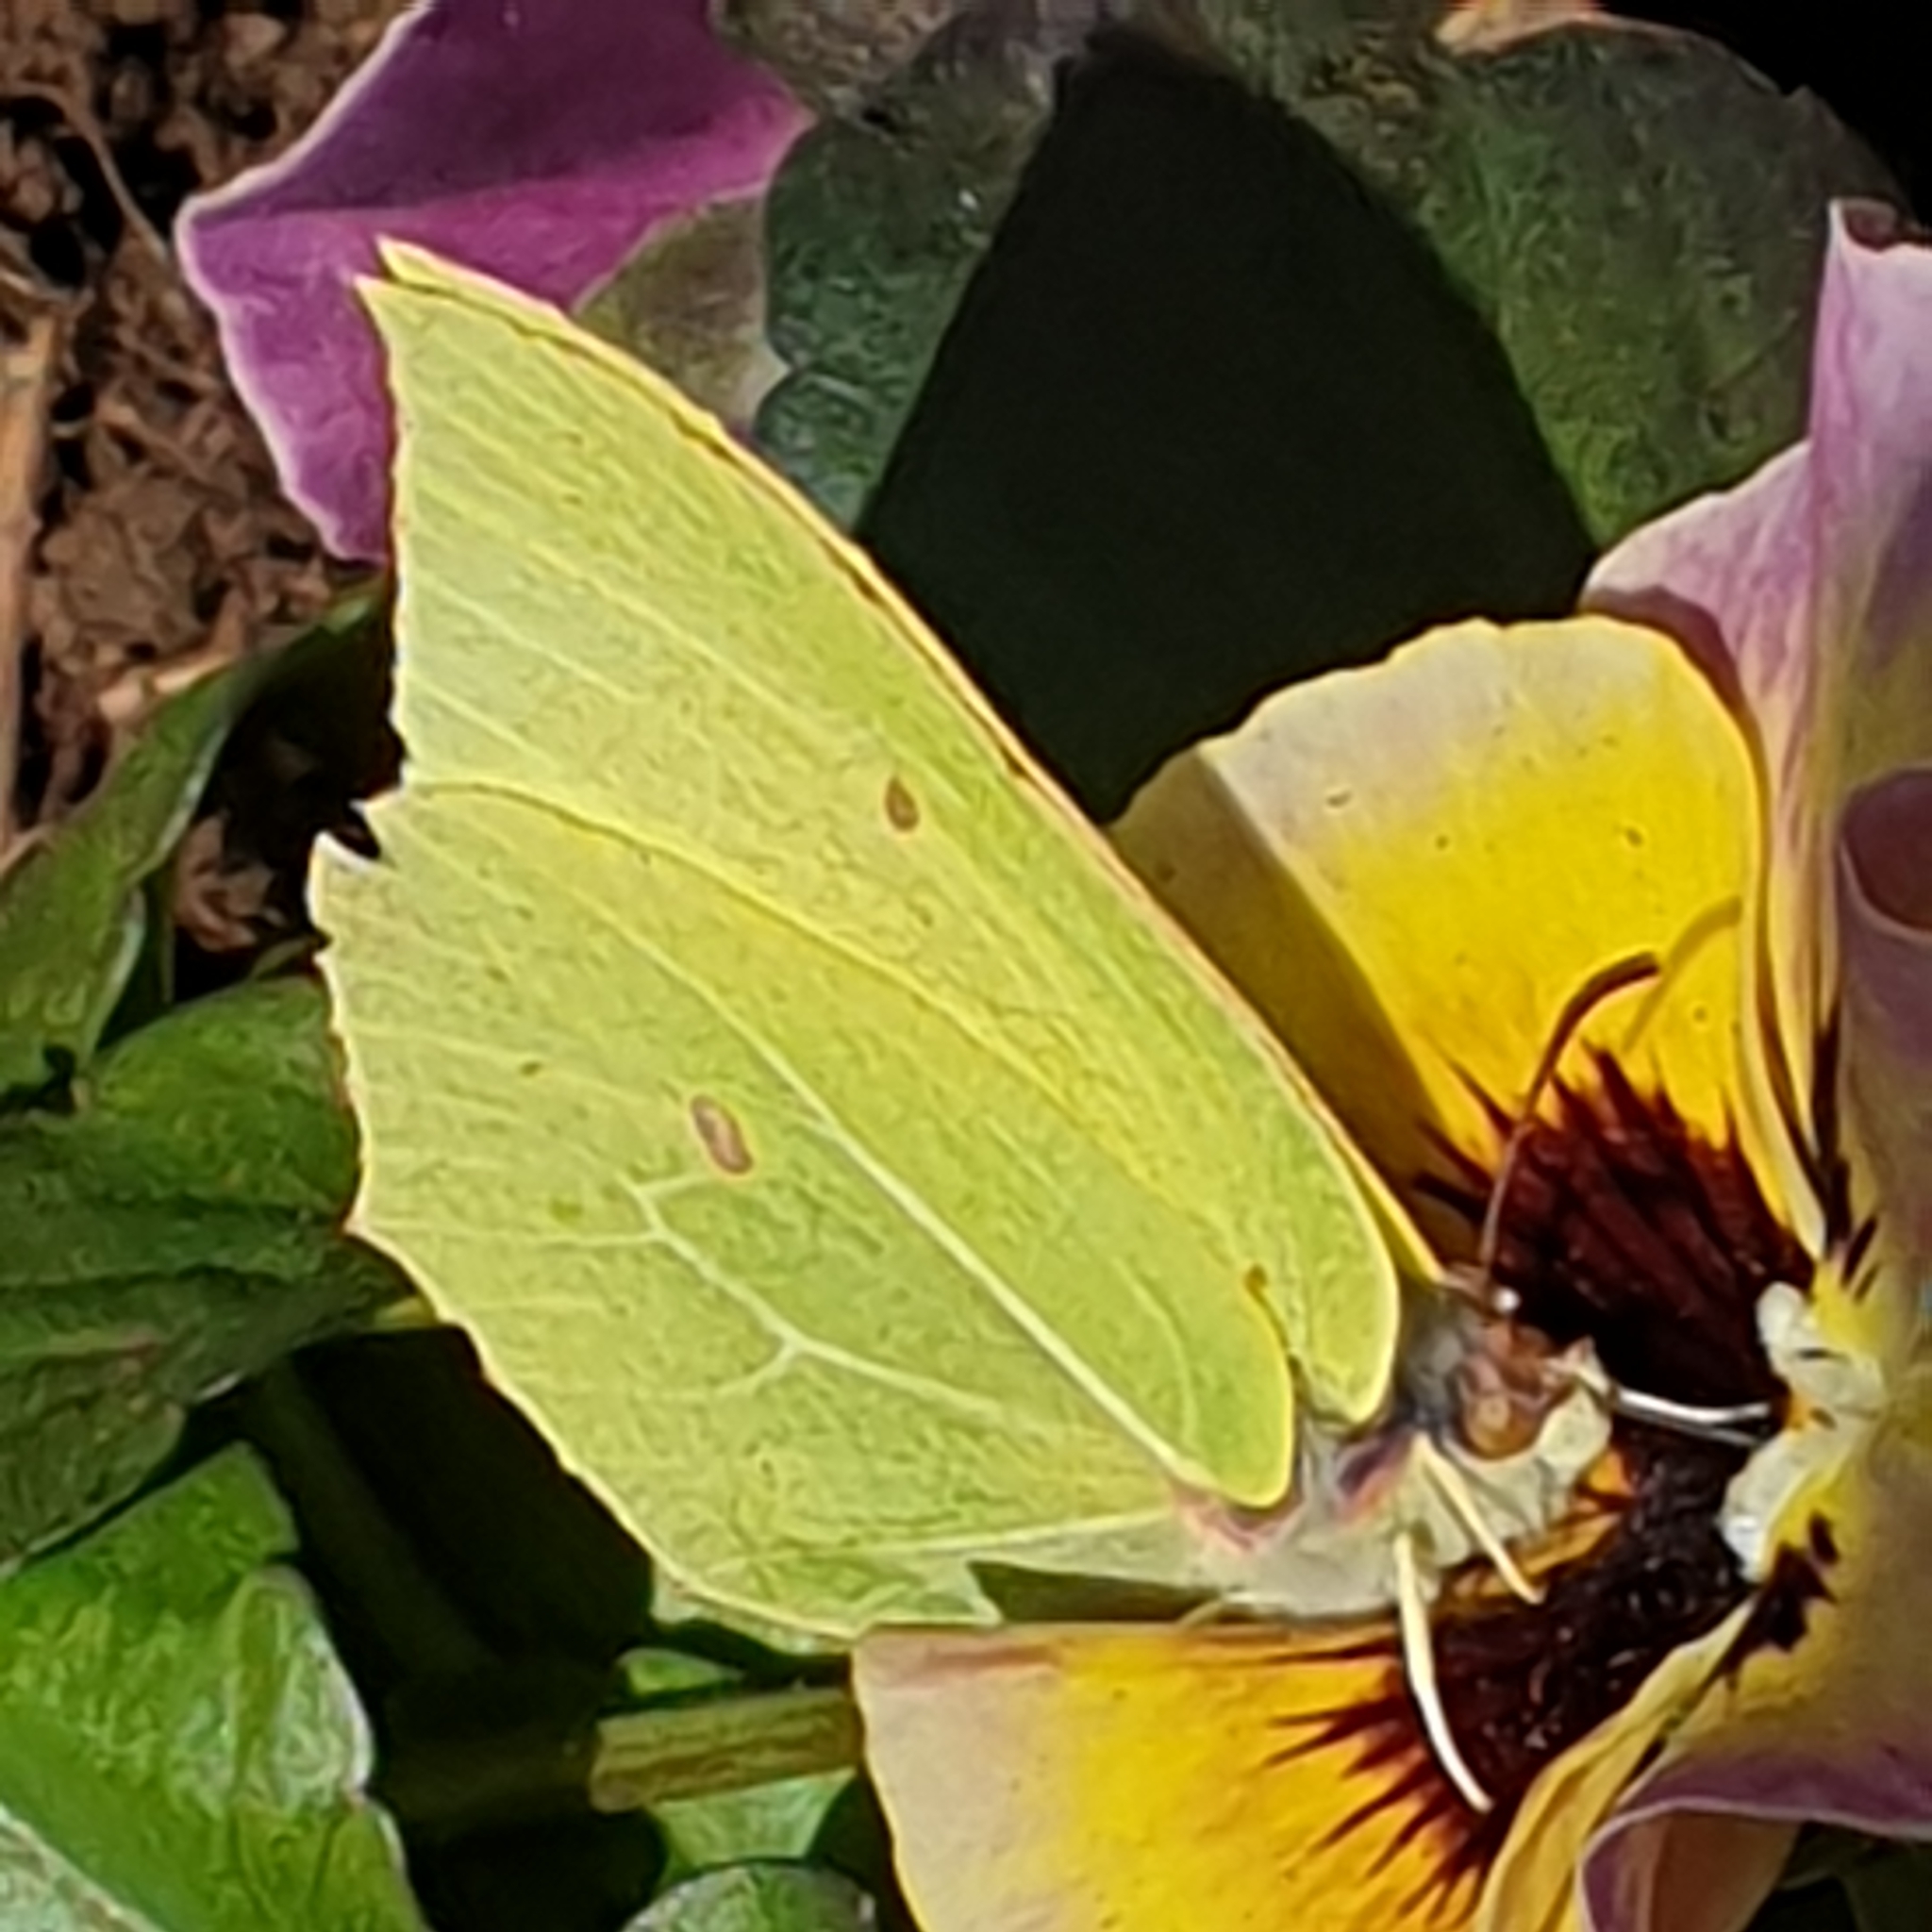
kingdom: Animalia
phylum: Arthropoda
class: Insecta
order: Lepidoptera
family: Pieridae
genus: Gonepteryx
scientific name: Gonepteryx rhamni
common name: Brimstone
